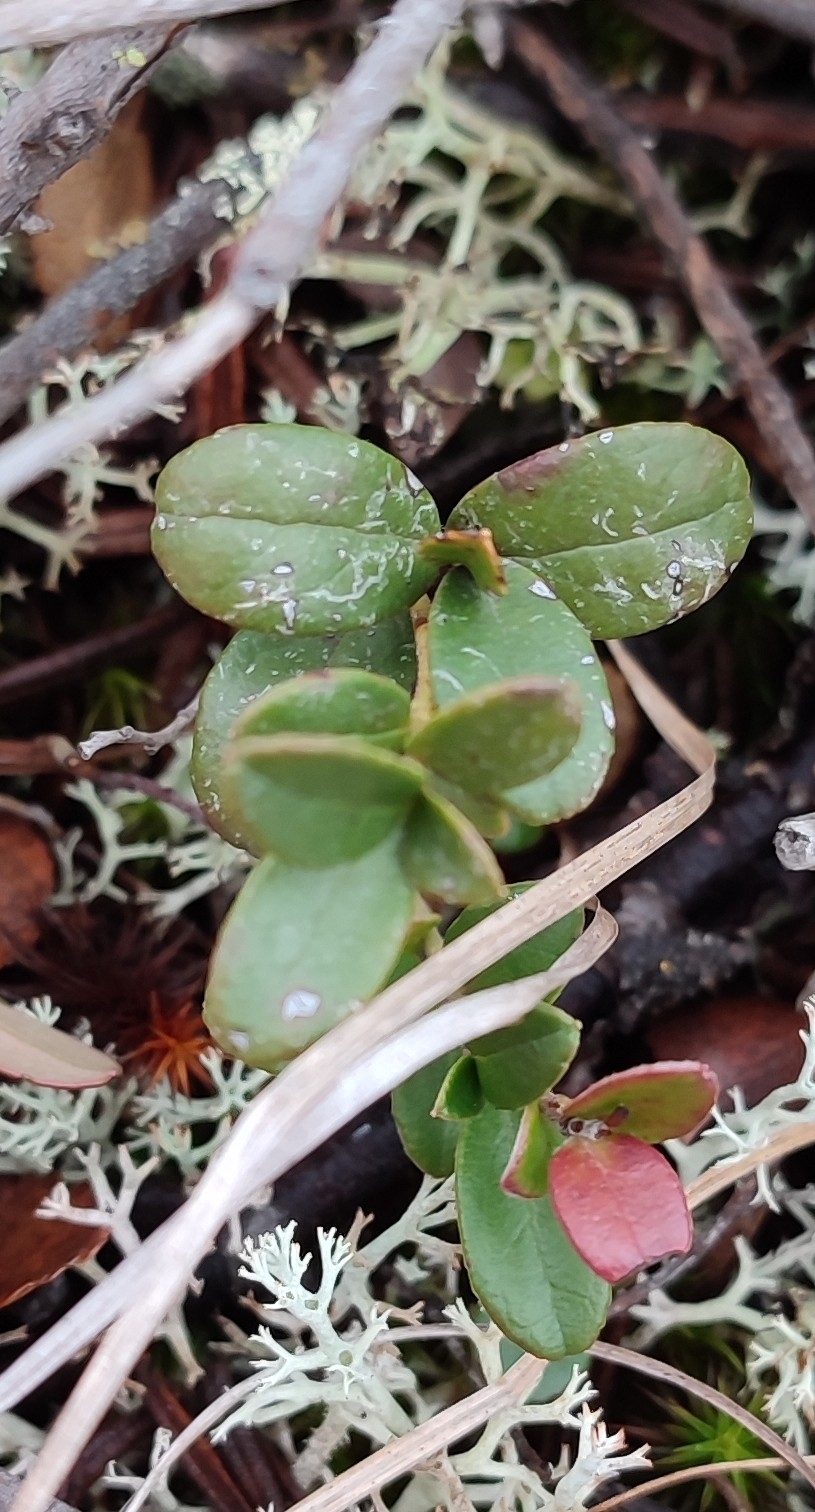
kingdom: Plantae
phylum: Tracheophyta
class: Magnoliopsida
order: Ericales
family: Ericaceae
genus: Vaccinium
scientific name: Vaccinium vitis-idaea
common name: Cowberry
